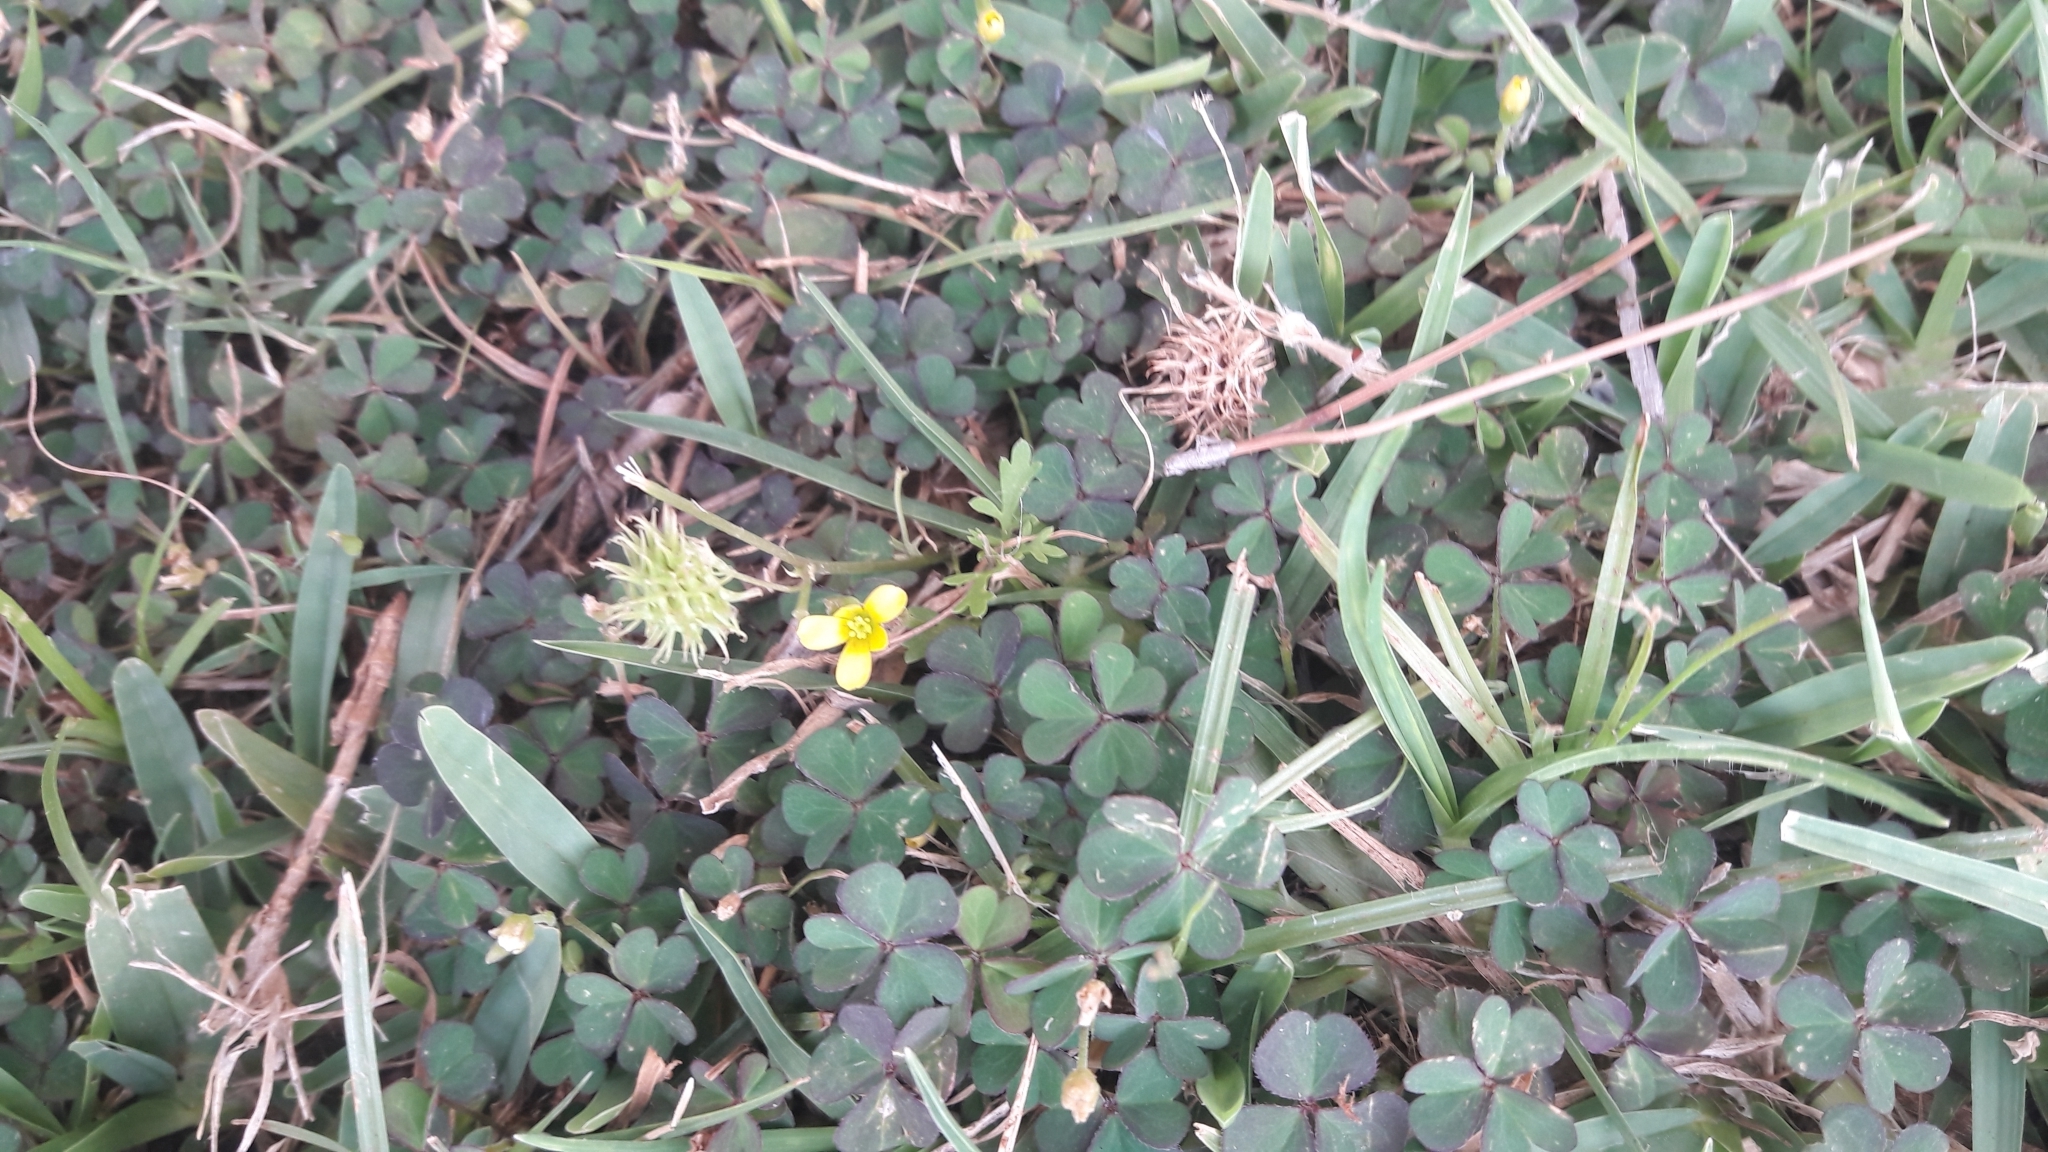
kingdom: Plantae
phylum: Tracheophyta
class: Magnoliopsida
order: Oxalidales
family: Oxalidaceae
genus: Oxalis
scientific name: Oxalis corniculata
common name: Procumbent yellow-sorrel
